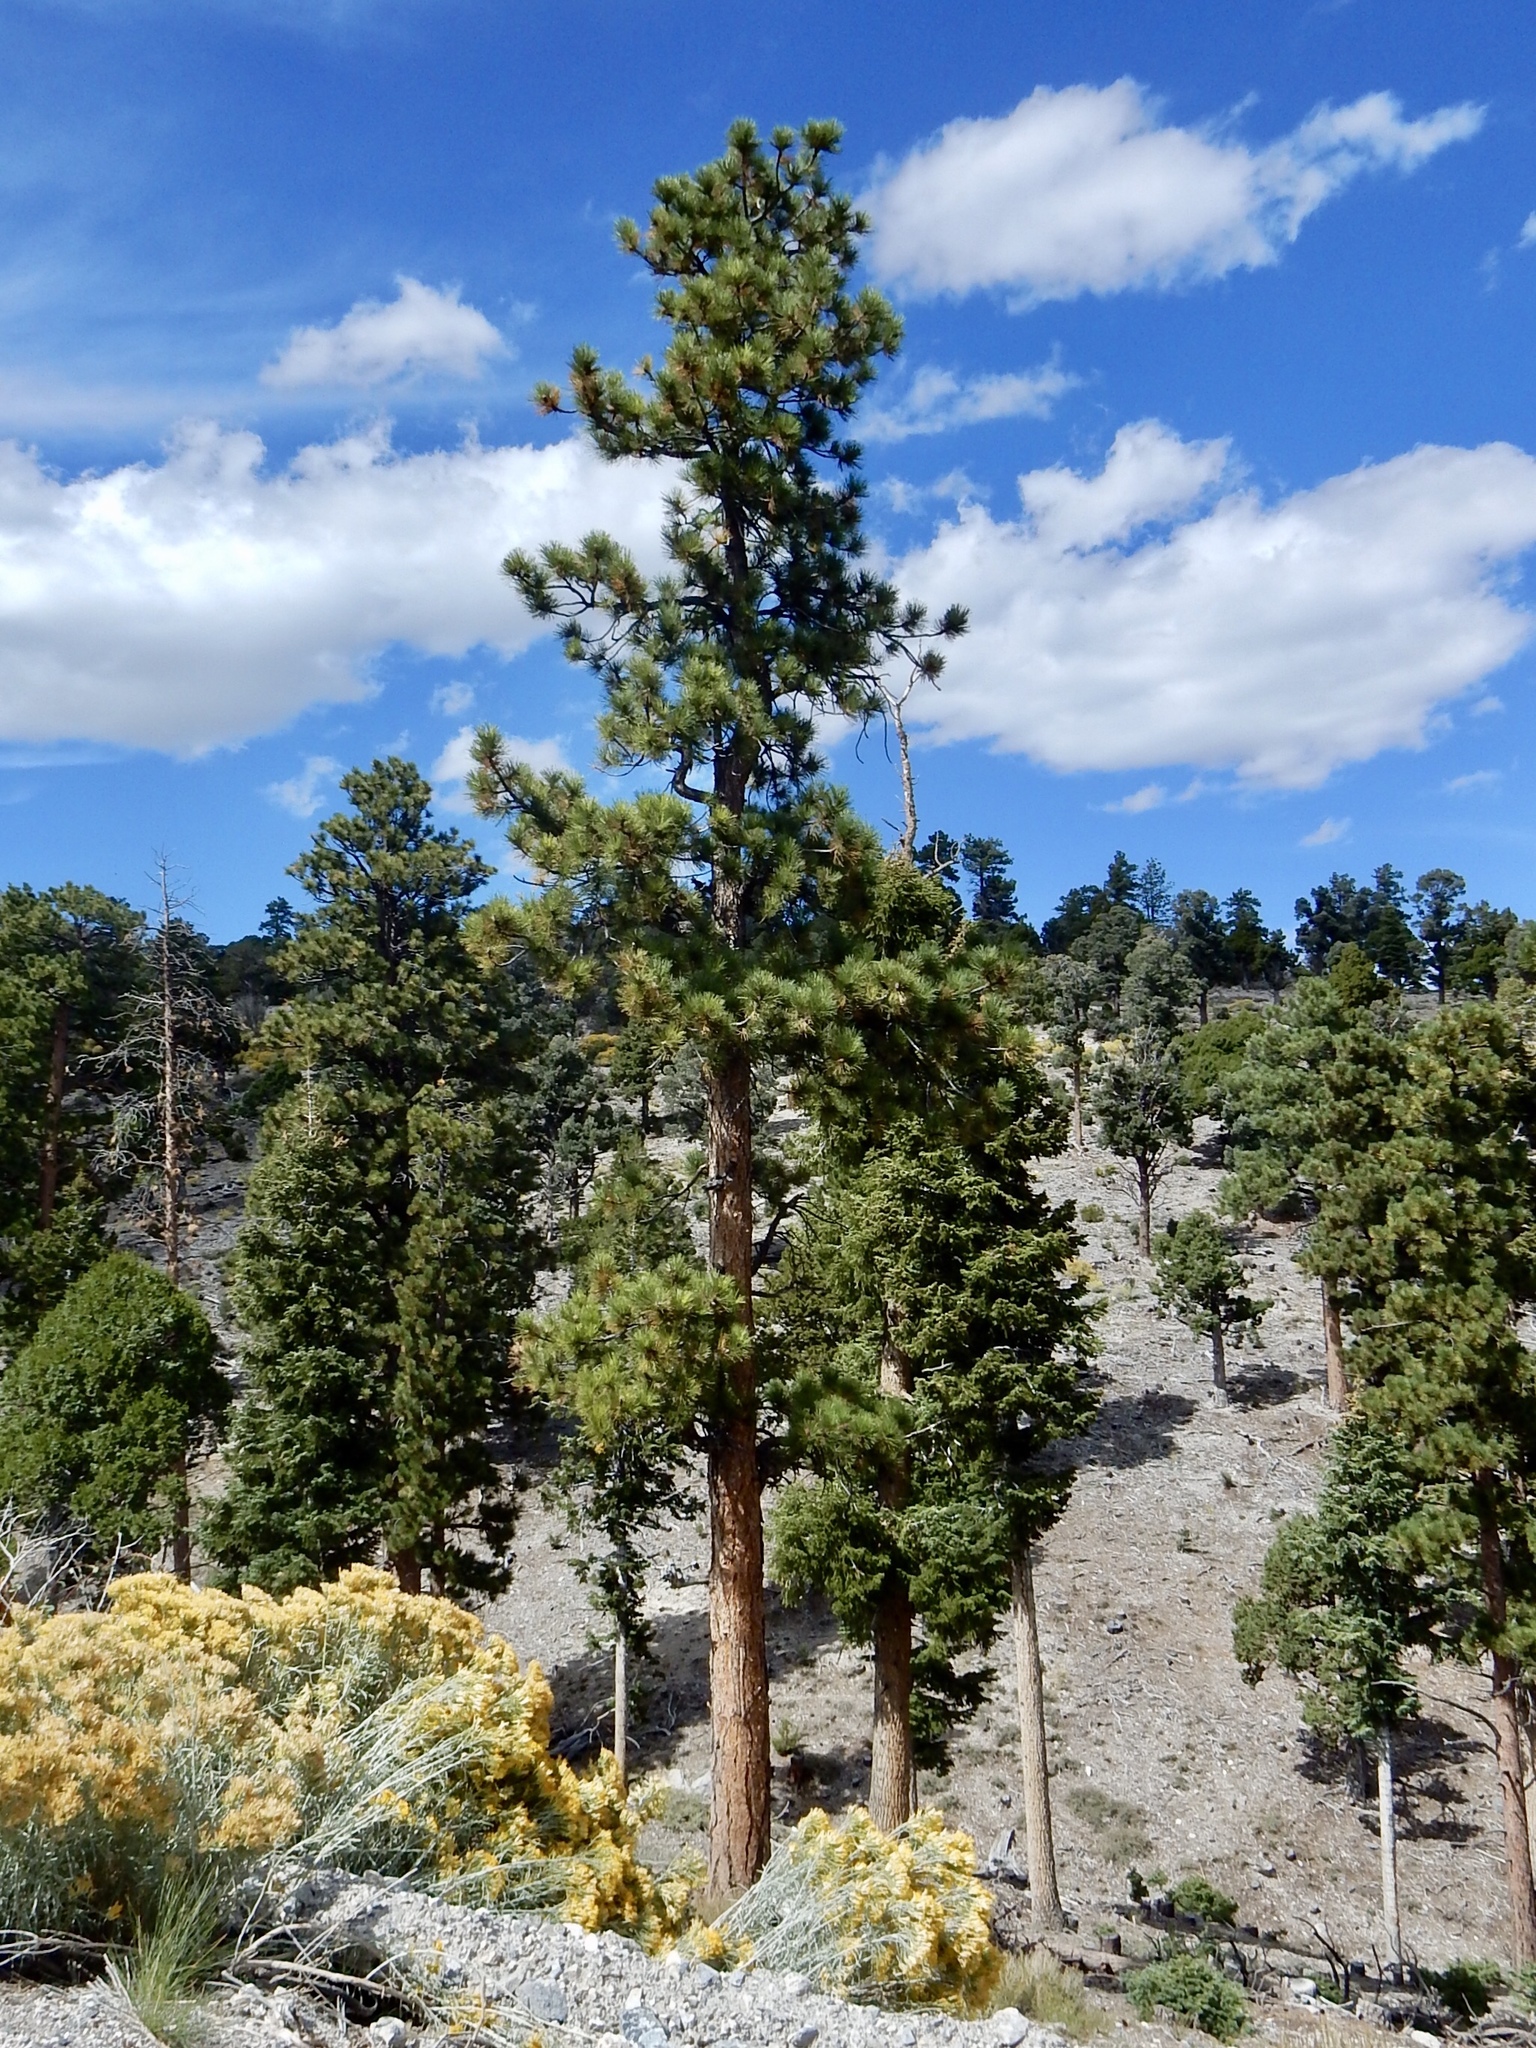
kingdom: Plantae
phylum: Tracheophyta
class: Pinopsida
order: Pinales
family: Pinaceae
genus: Pinus
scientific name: Pinus ponderosa
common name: Western yellow-pine
